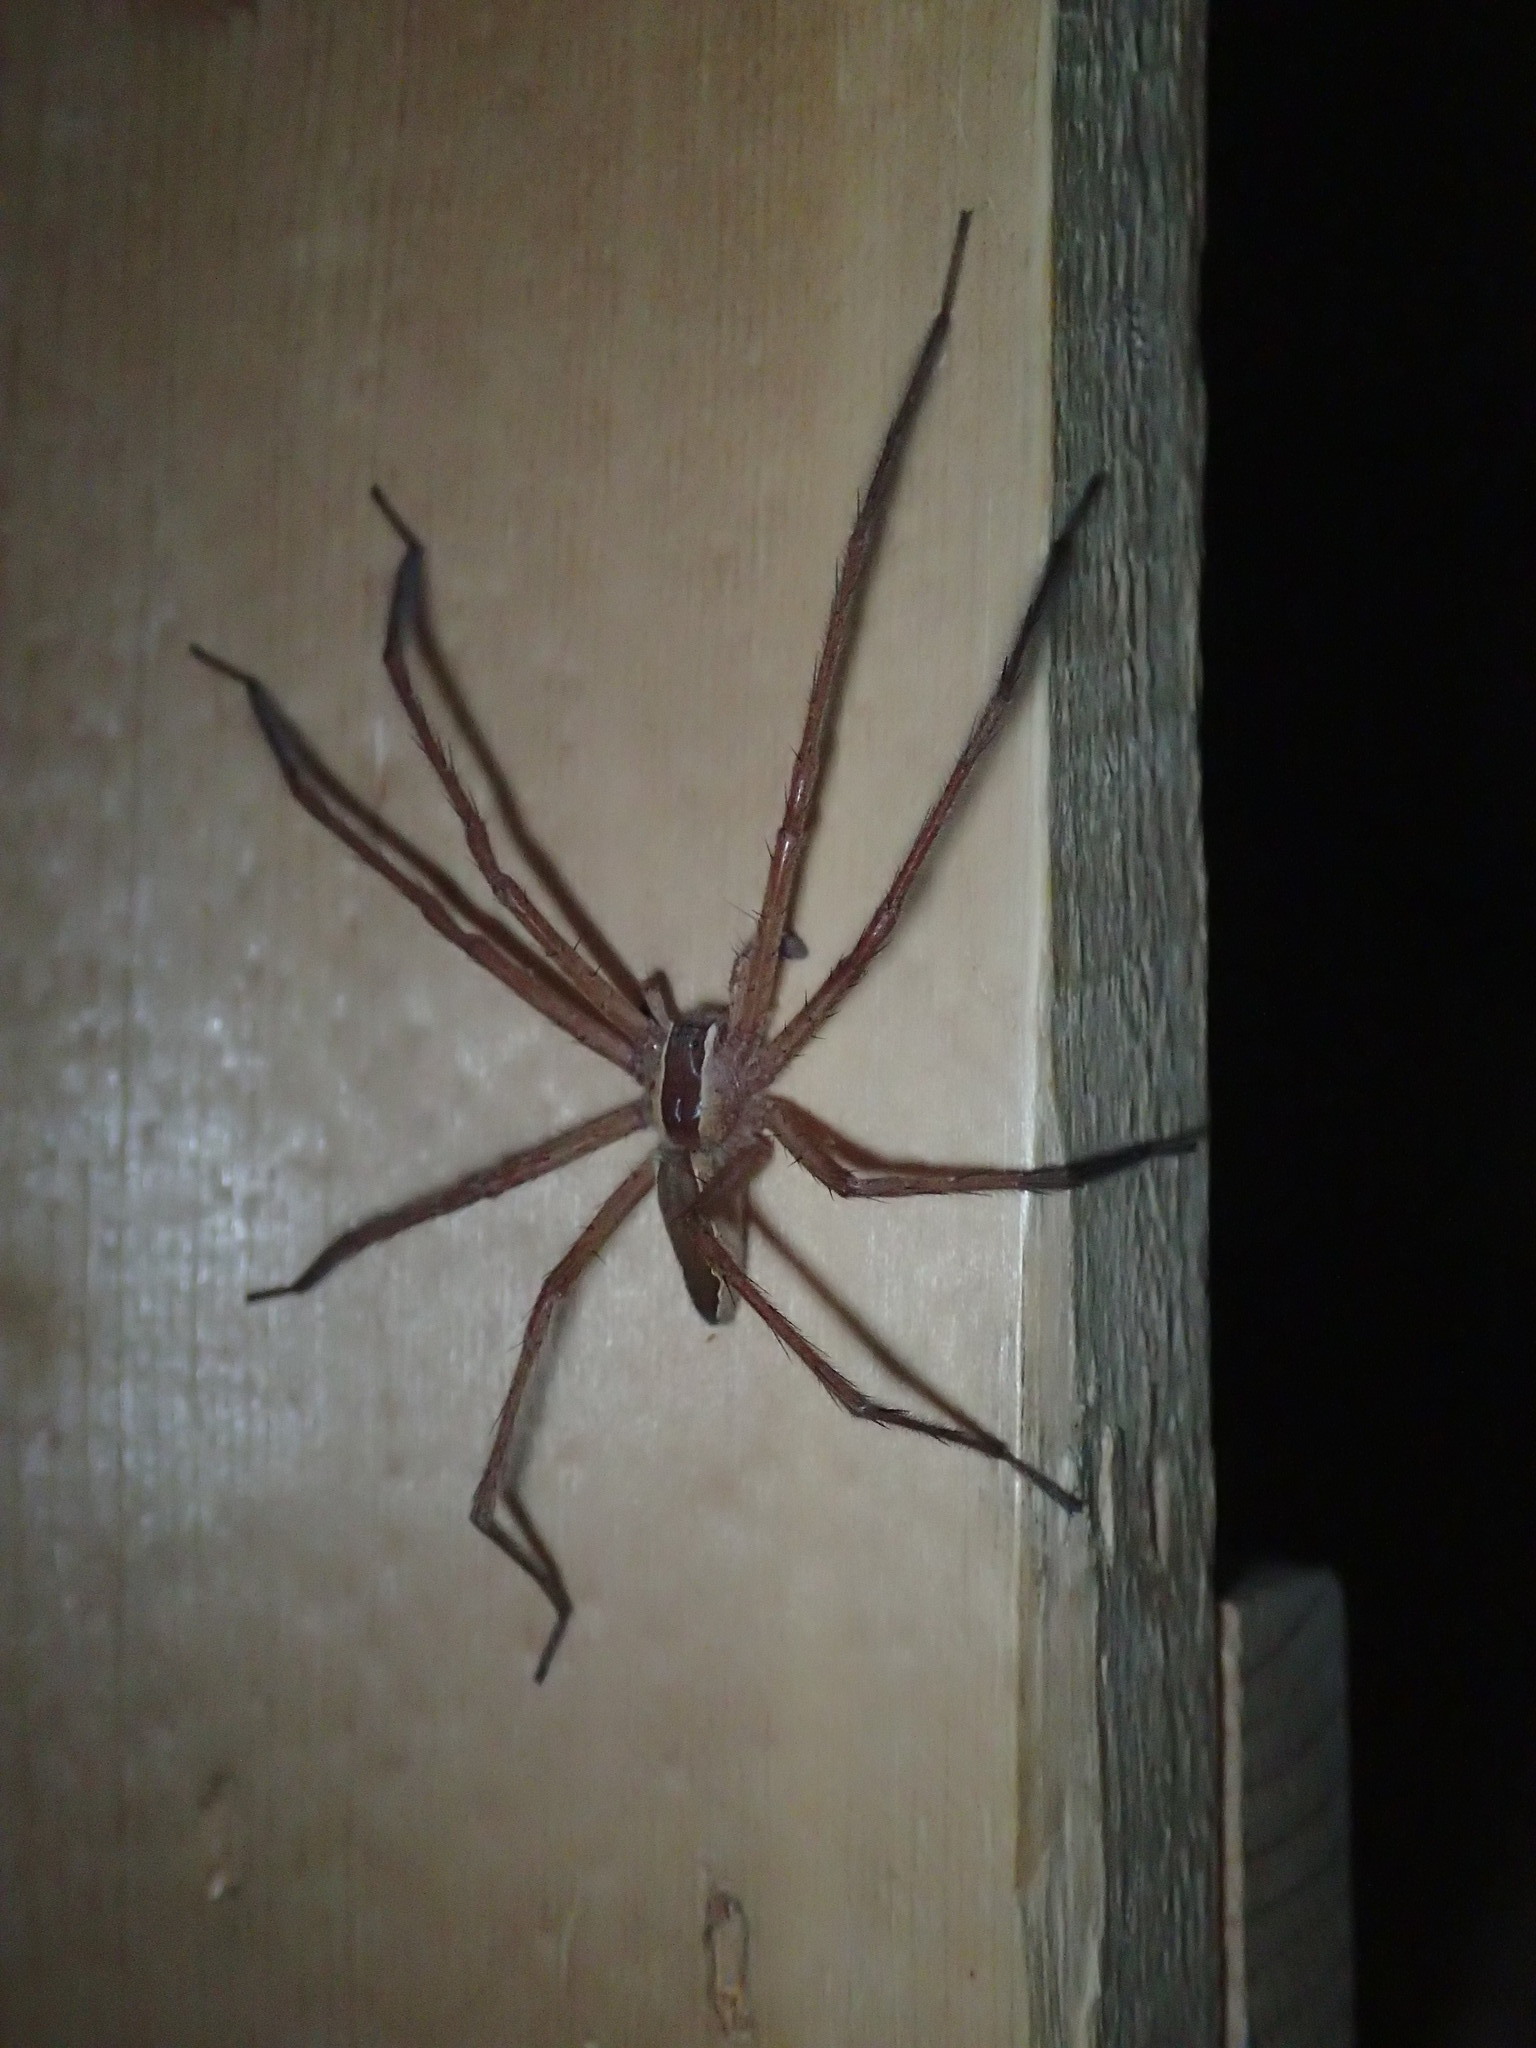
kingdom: Animalia
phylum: Arthropoda
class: Arachnida
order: Araneae
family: Pisauridae
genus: Pisaurina
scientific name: Pisaurina mira
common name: American nursery web spider
